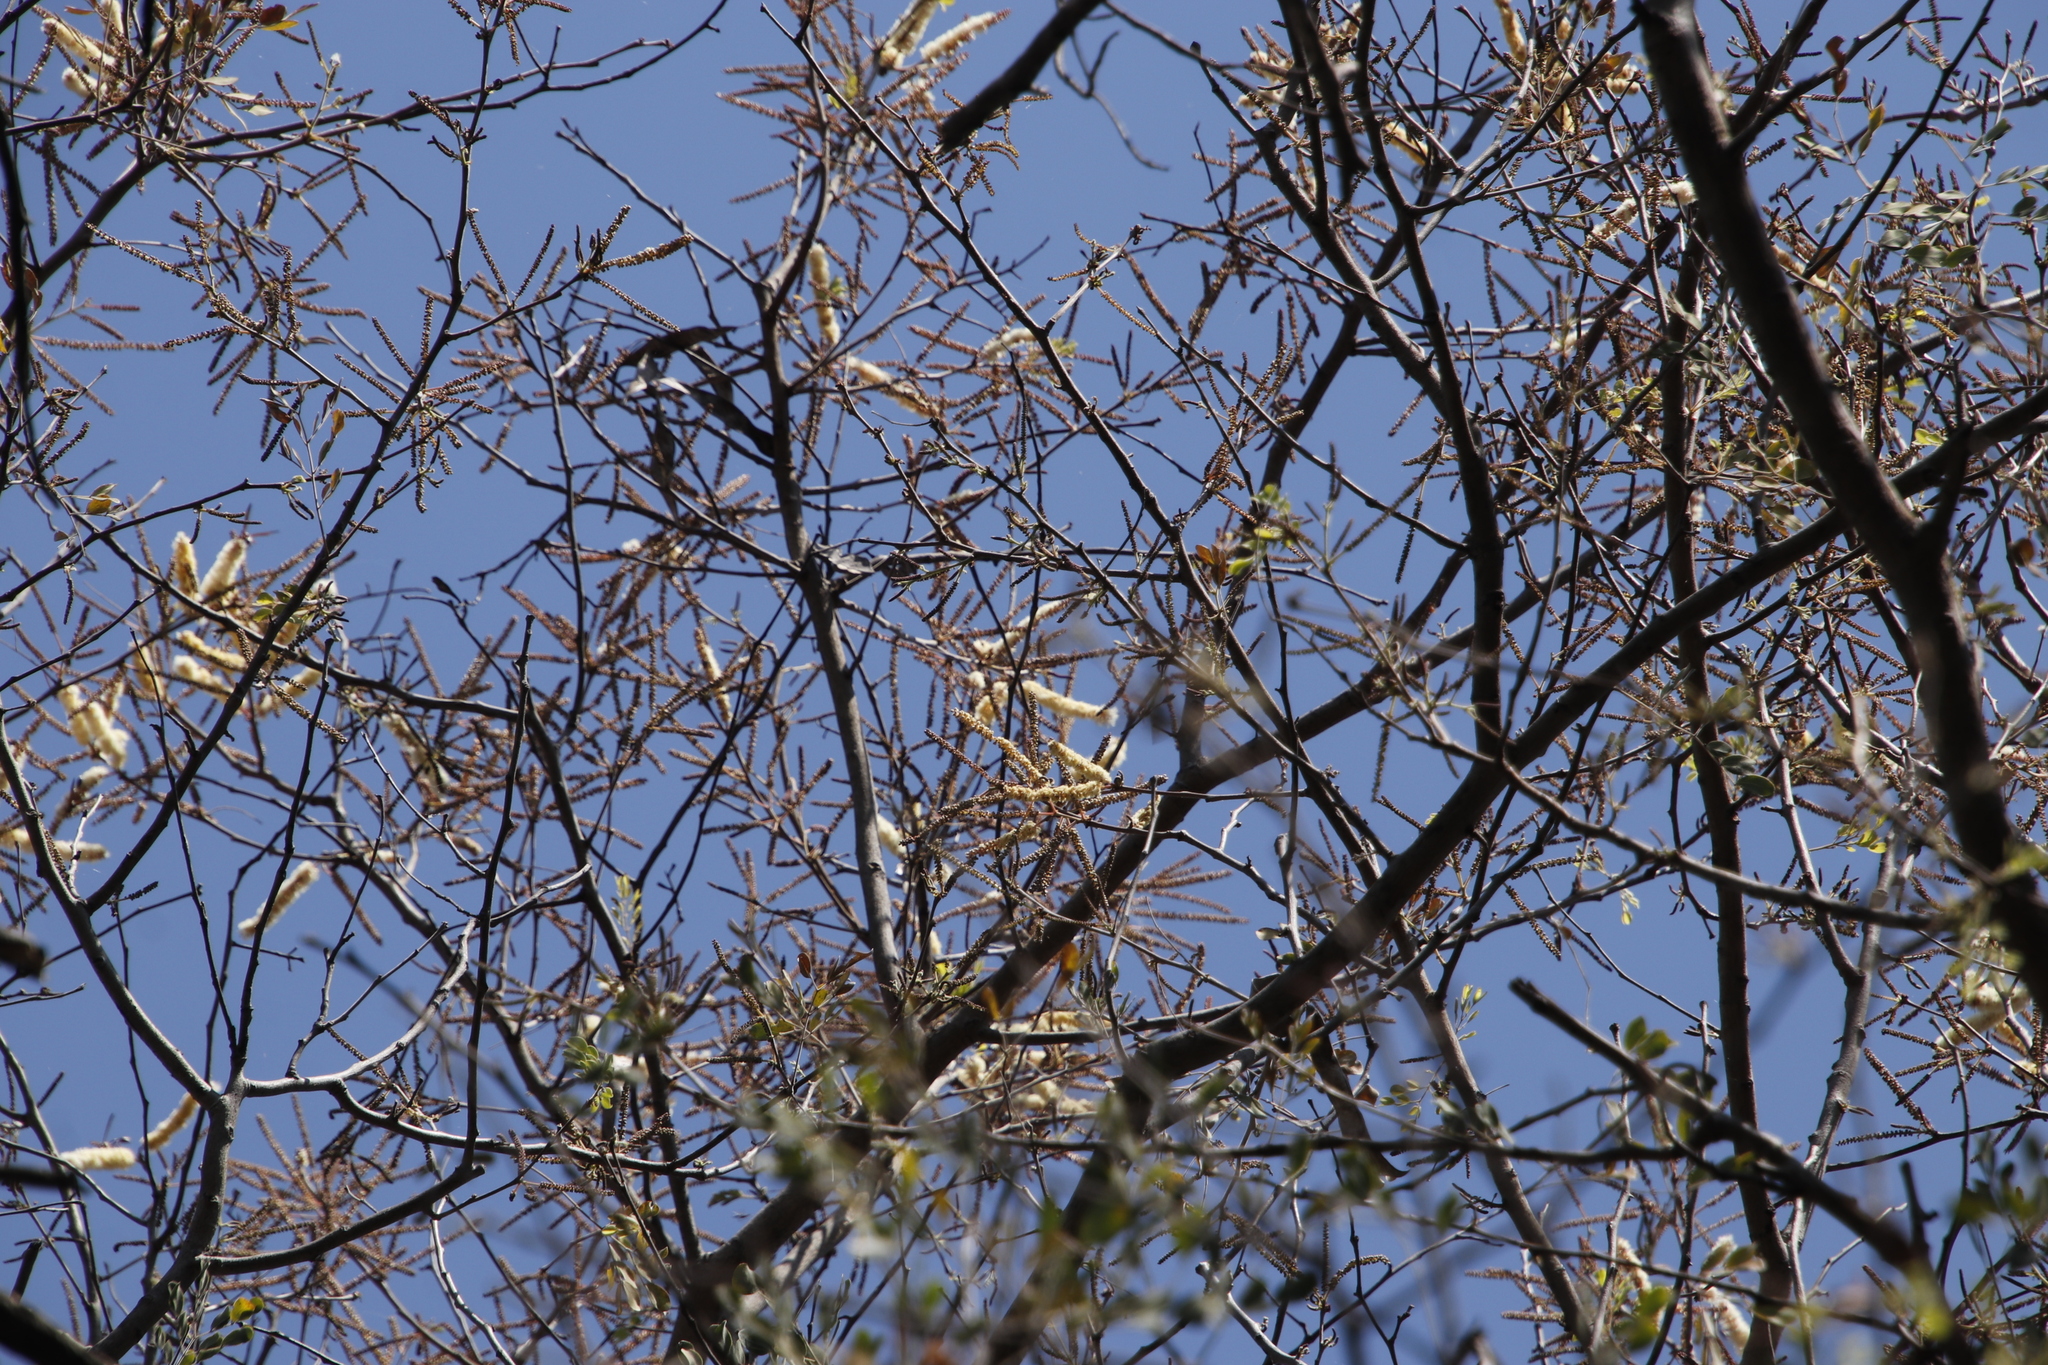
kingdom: Plantae
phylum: Tracheophyta
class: Magnoliopsida
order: Fabales
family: Fabaceae
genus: Senegalia
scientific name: Senegalia nigrescens
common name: Knobthorn
